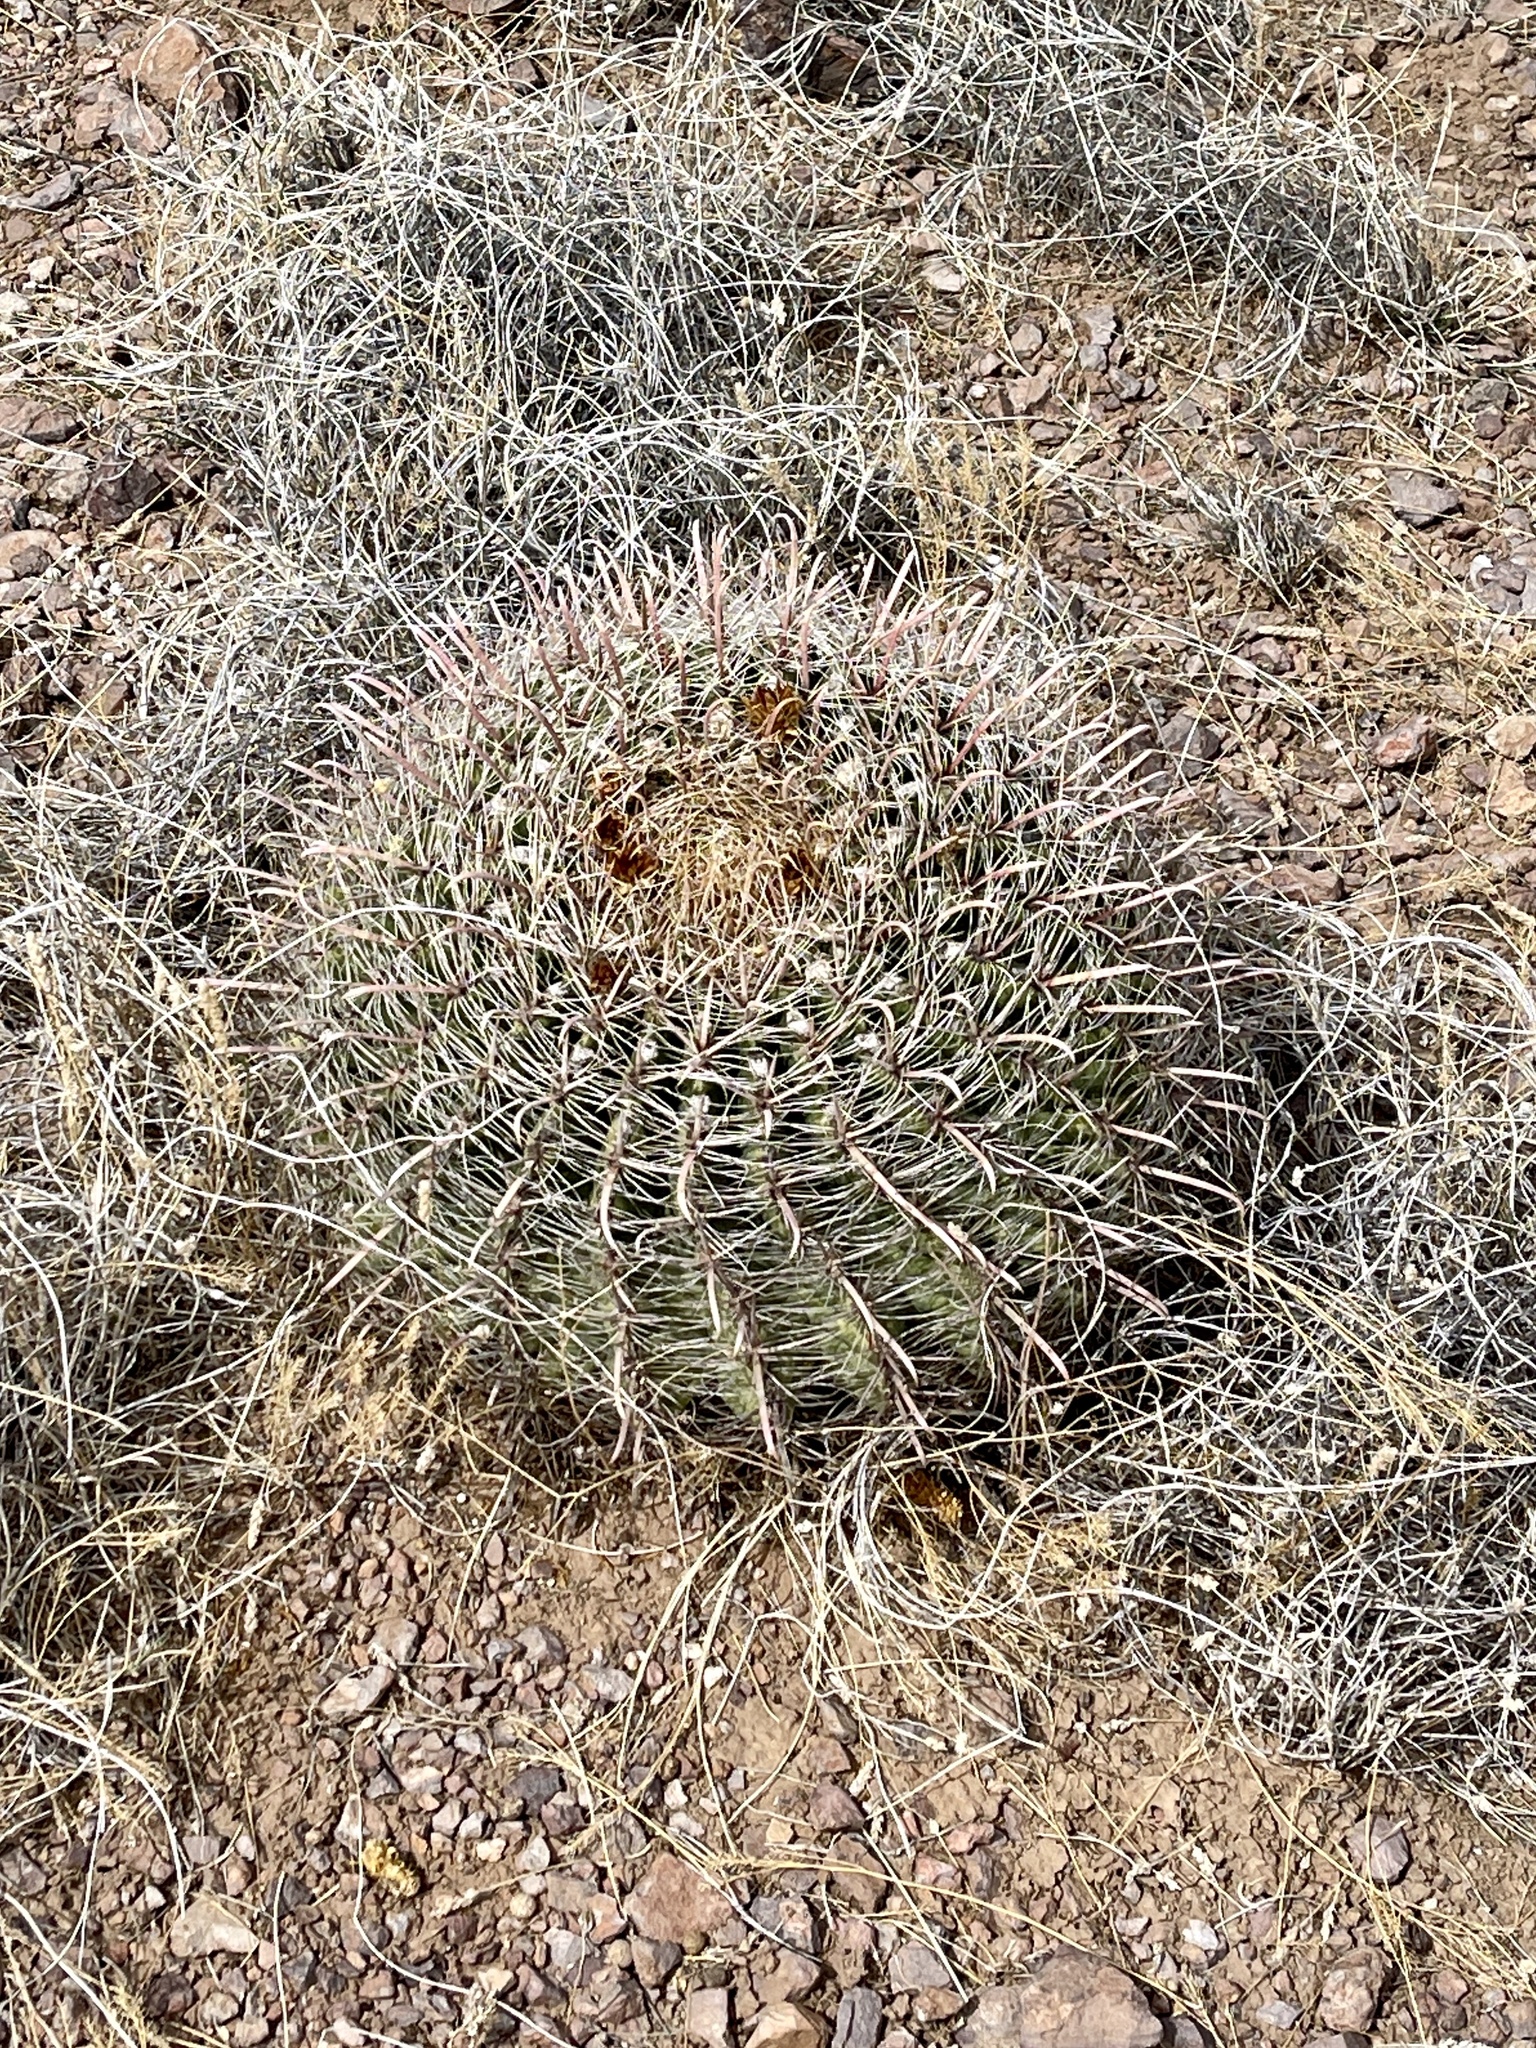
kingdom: Plantae
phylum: Tracheophyta
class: Magnoliopsida
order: Caryophyllales
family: Cactaceae
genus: Ferocactus
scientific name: Ferocactus wislizeni
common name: Candy barrel cactus
